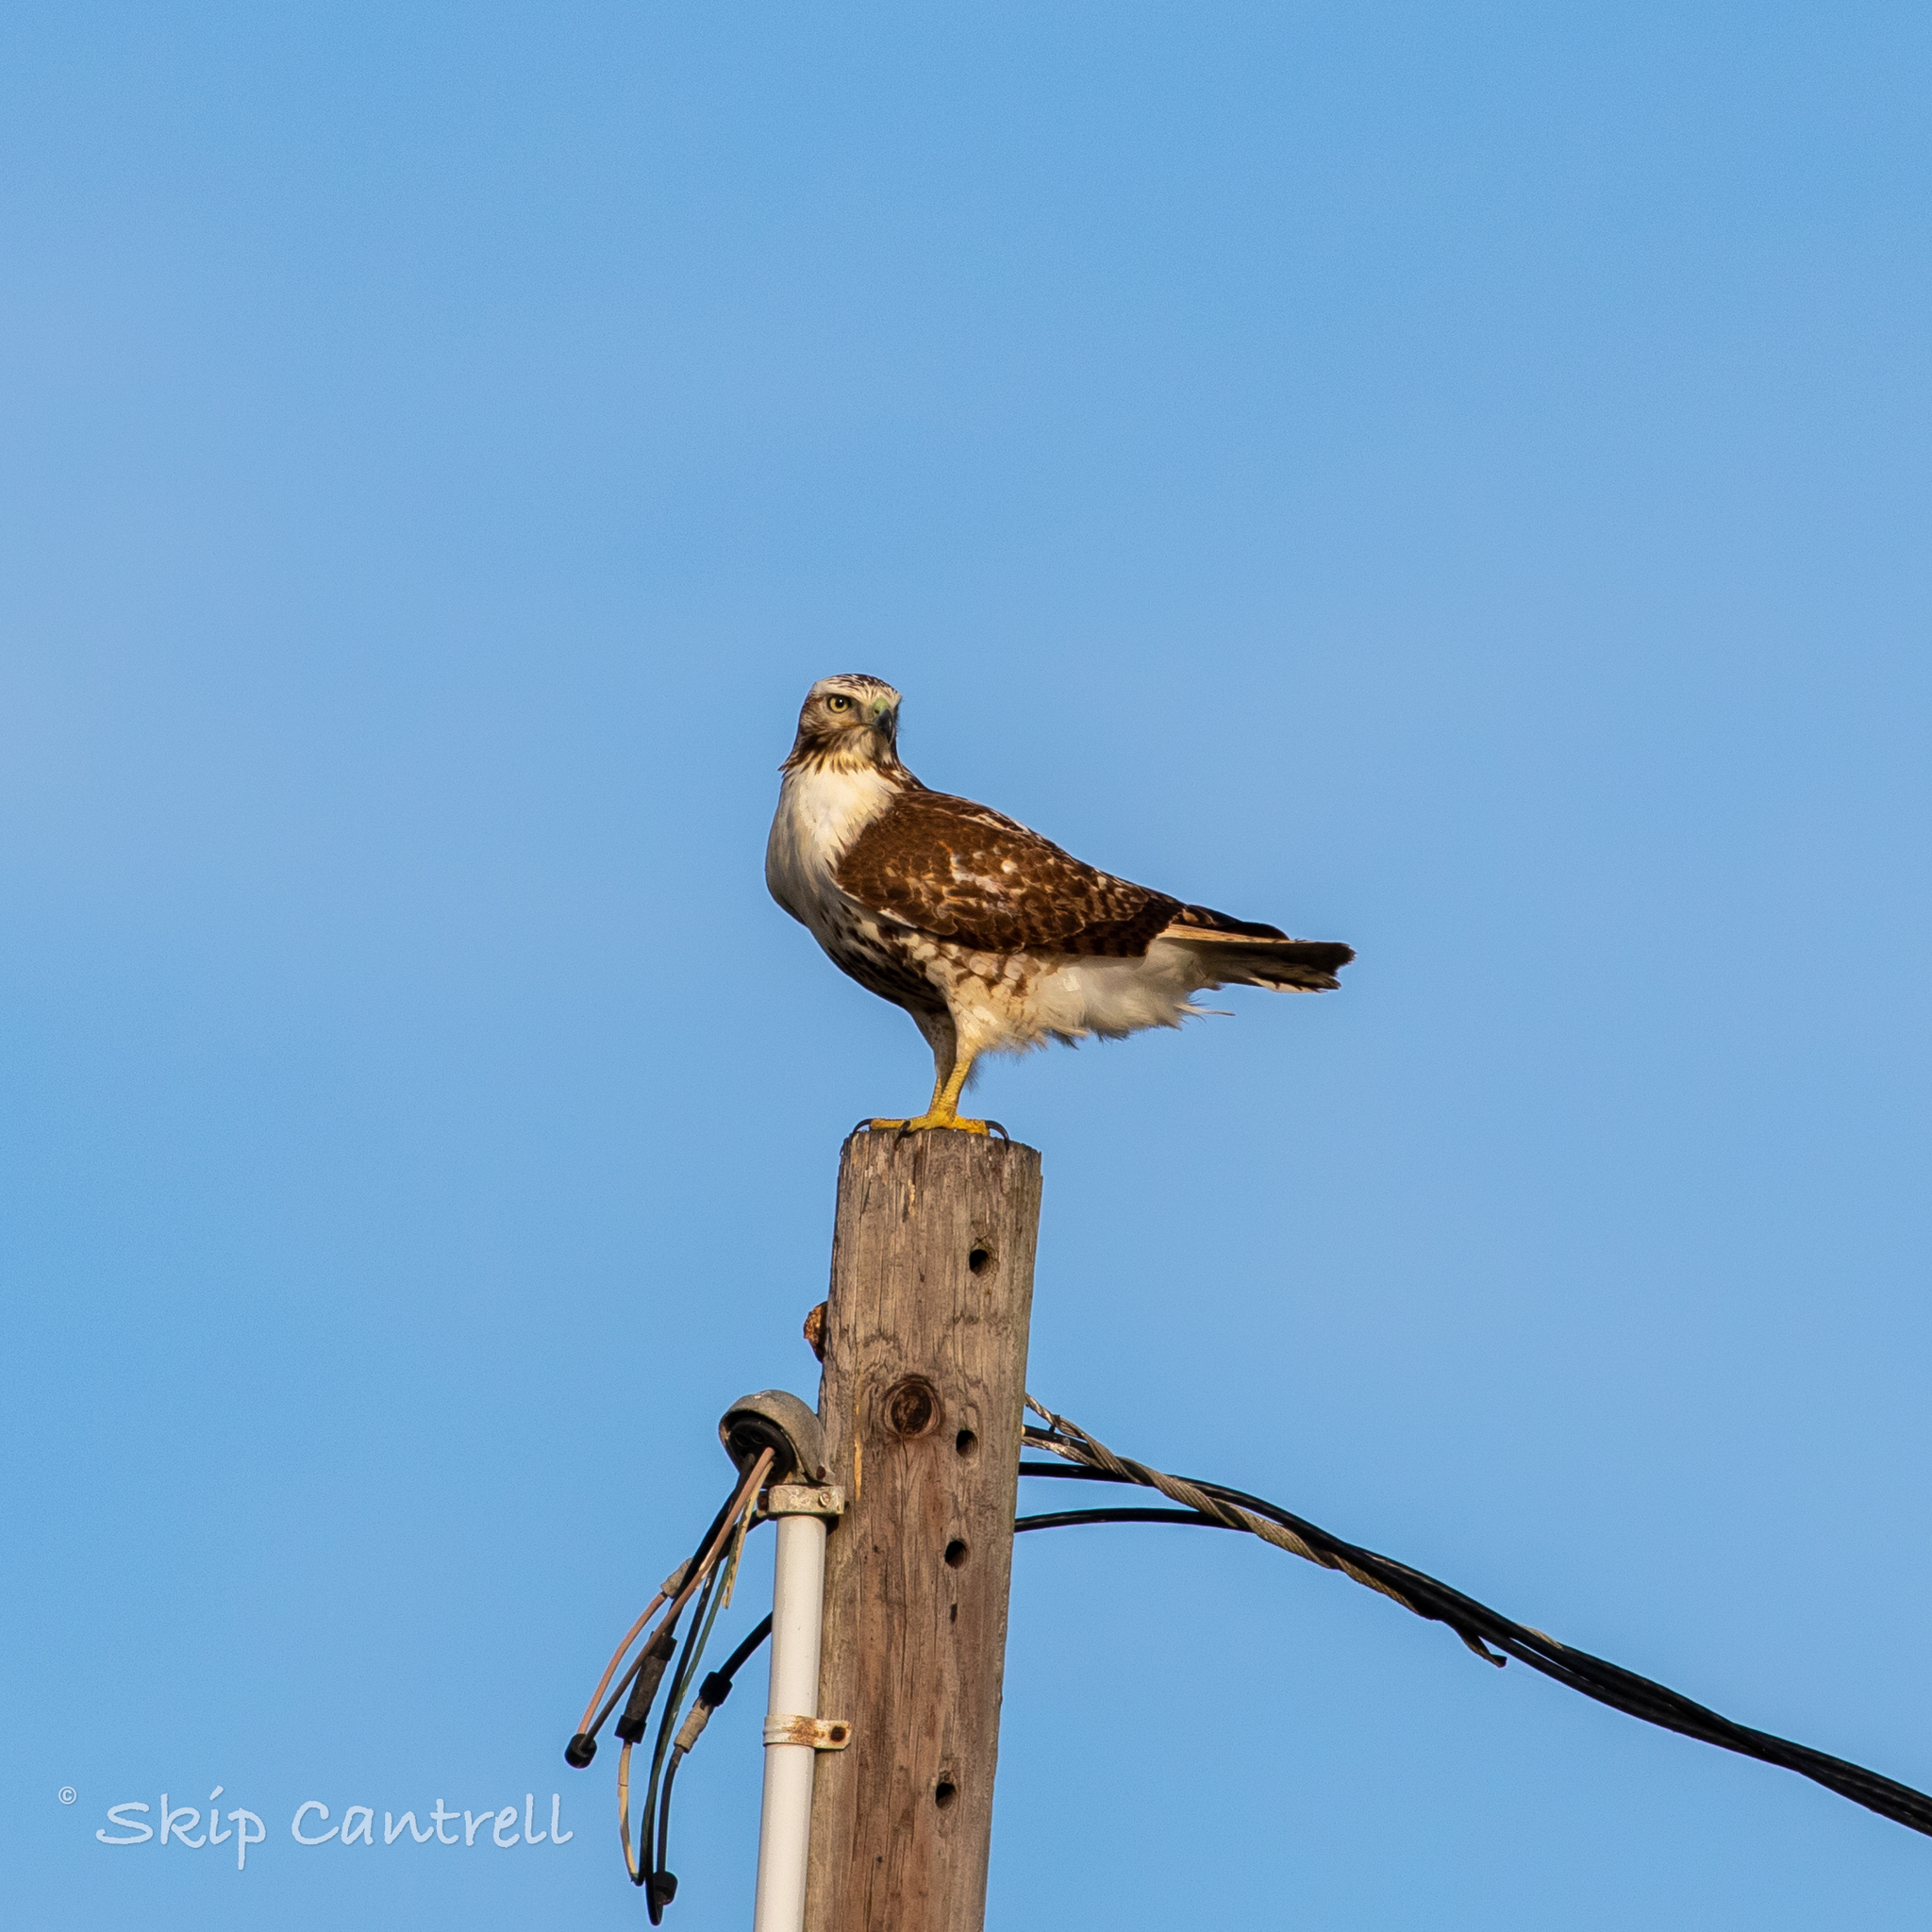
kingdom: Animalia
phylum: Chordata
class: Aves
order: Accipitriformes
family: Accipitridae
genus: Buteo
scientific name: Buteo jamaicensis
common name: Red-tailed hawk
